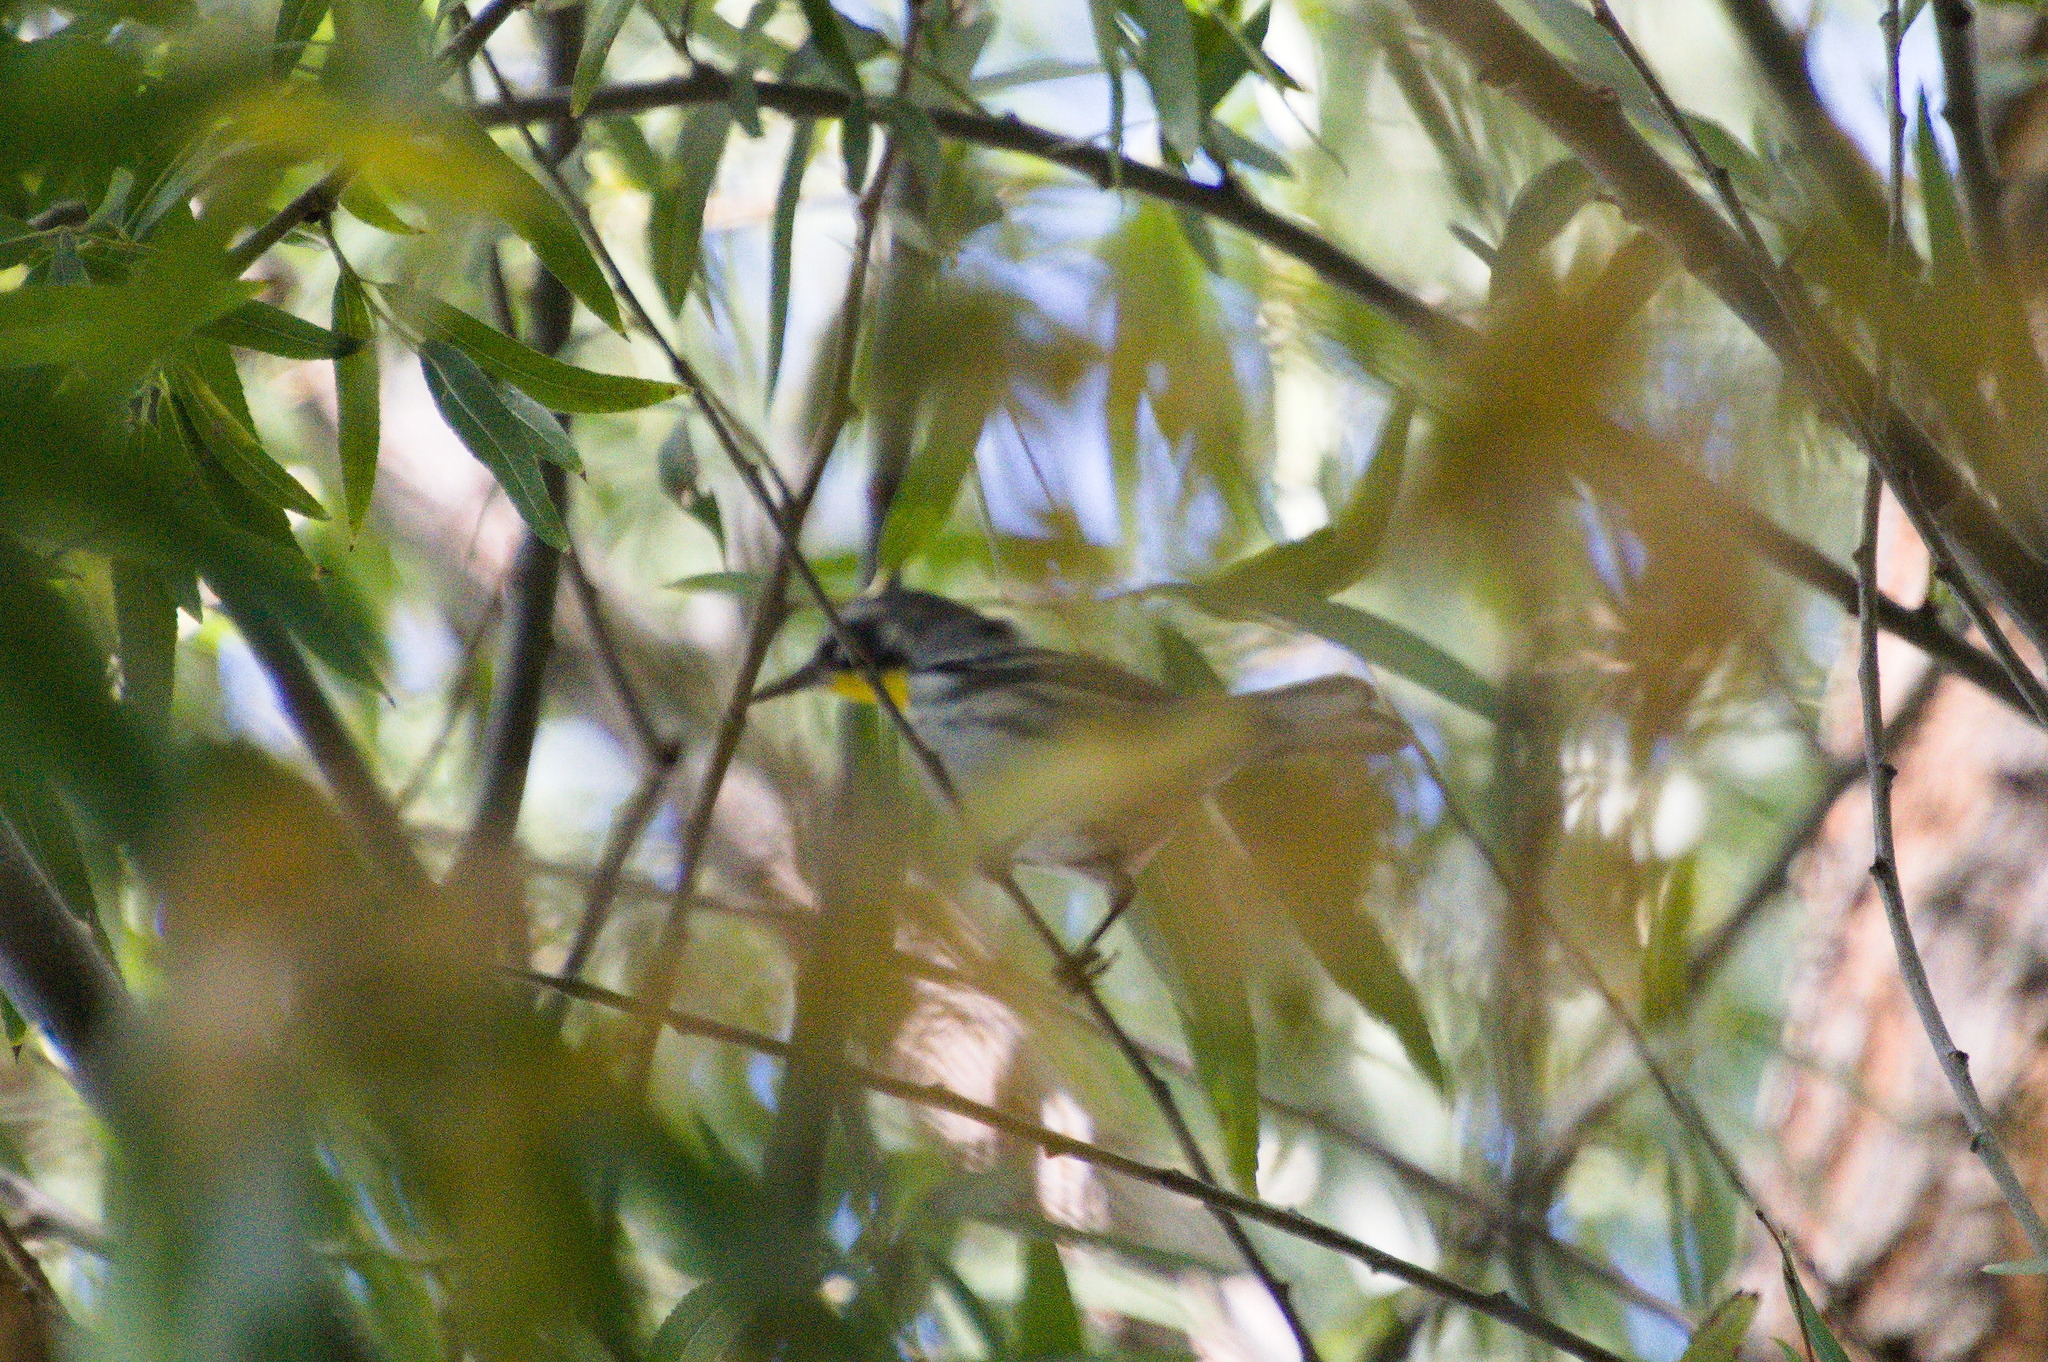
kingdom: Animalia
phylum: Chordata
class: Aves
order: Passeriformes
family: Parulidae
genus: Setophaga
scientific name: Setophaga dominica
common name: Yellow-throated warbler
